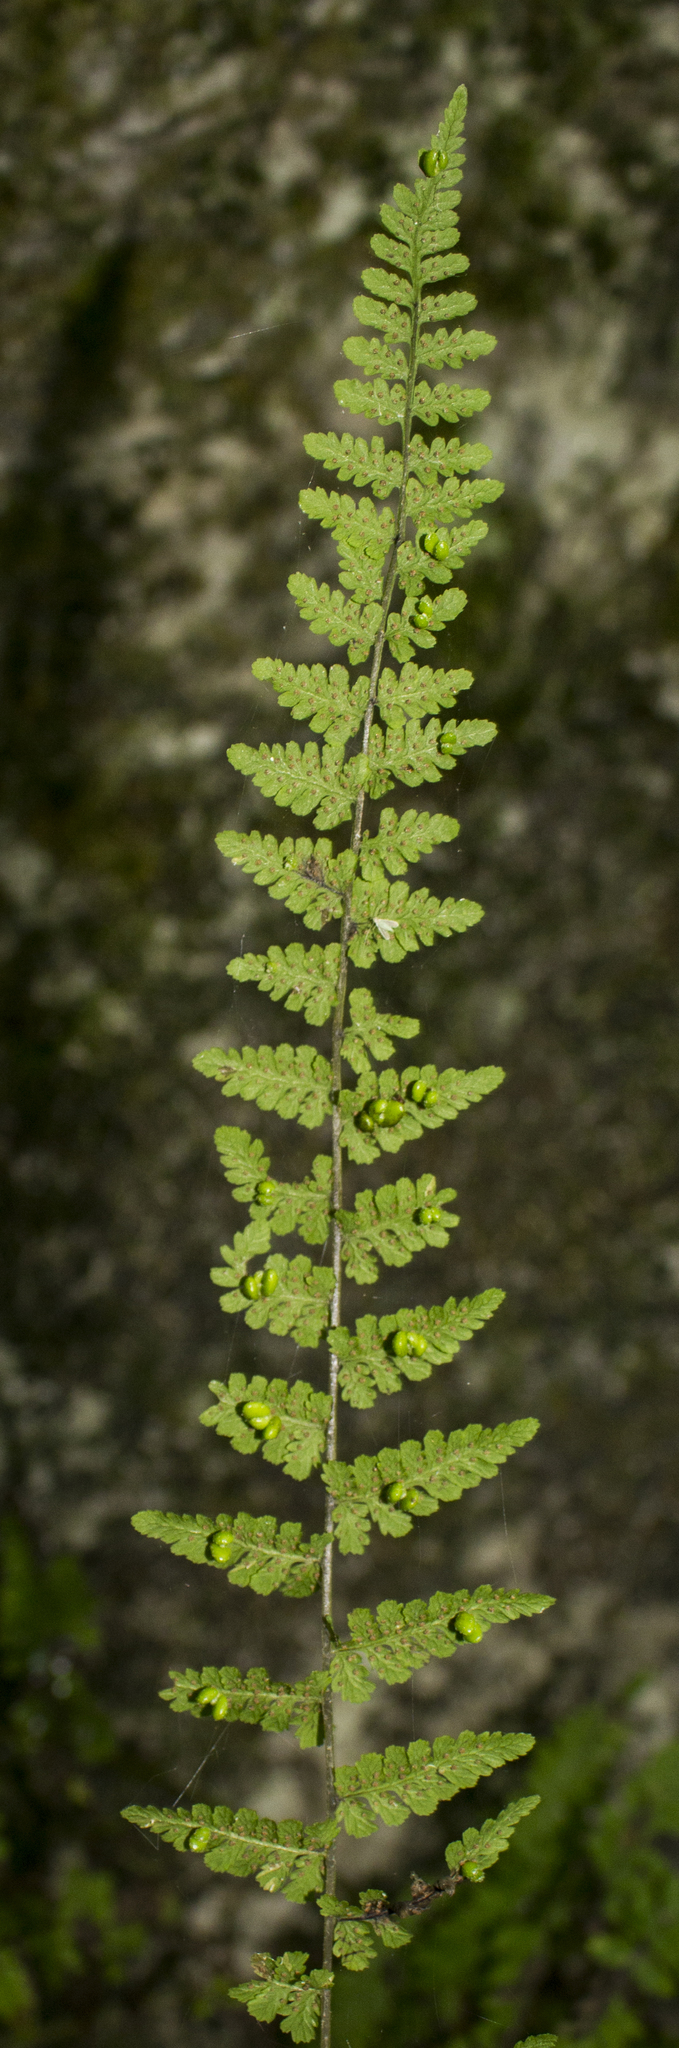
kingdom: Plantae
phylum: Tracheophyta
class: Polypodiopsida
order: Polypodiales
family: Cystopteridaceae
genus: Cystopteris
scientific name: Cystopteris bulbifera
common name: Bulblet bladder fern
